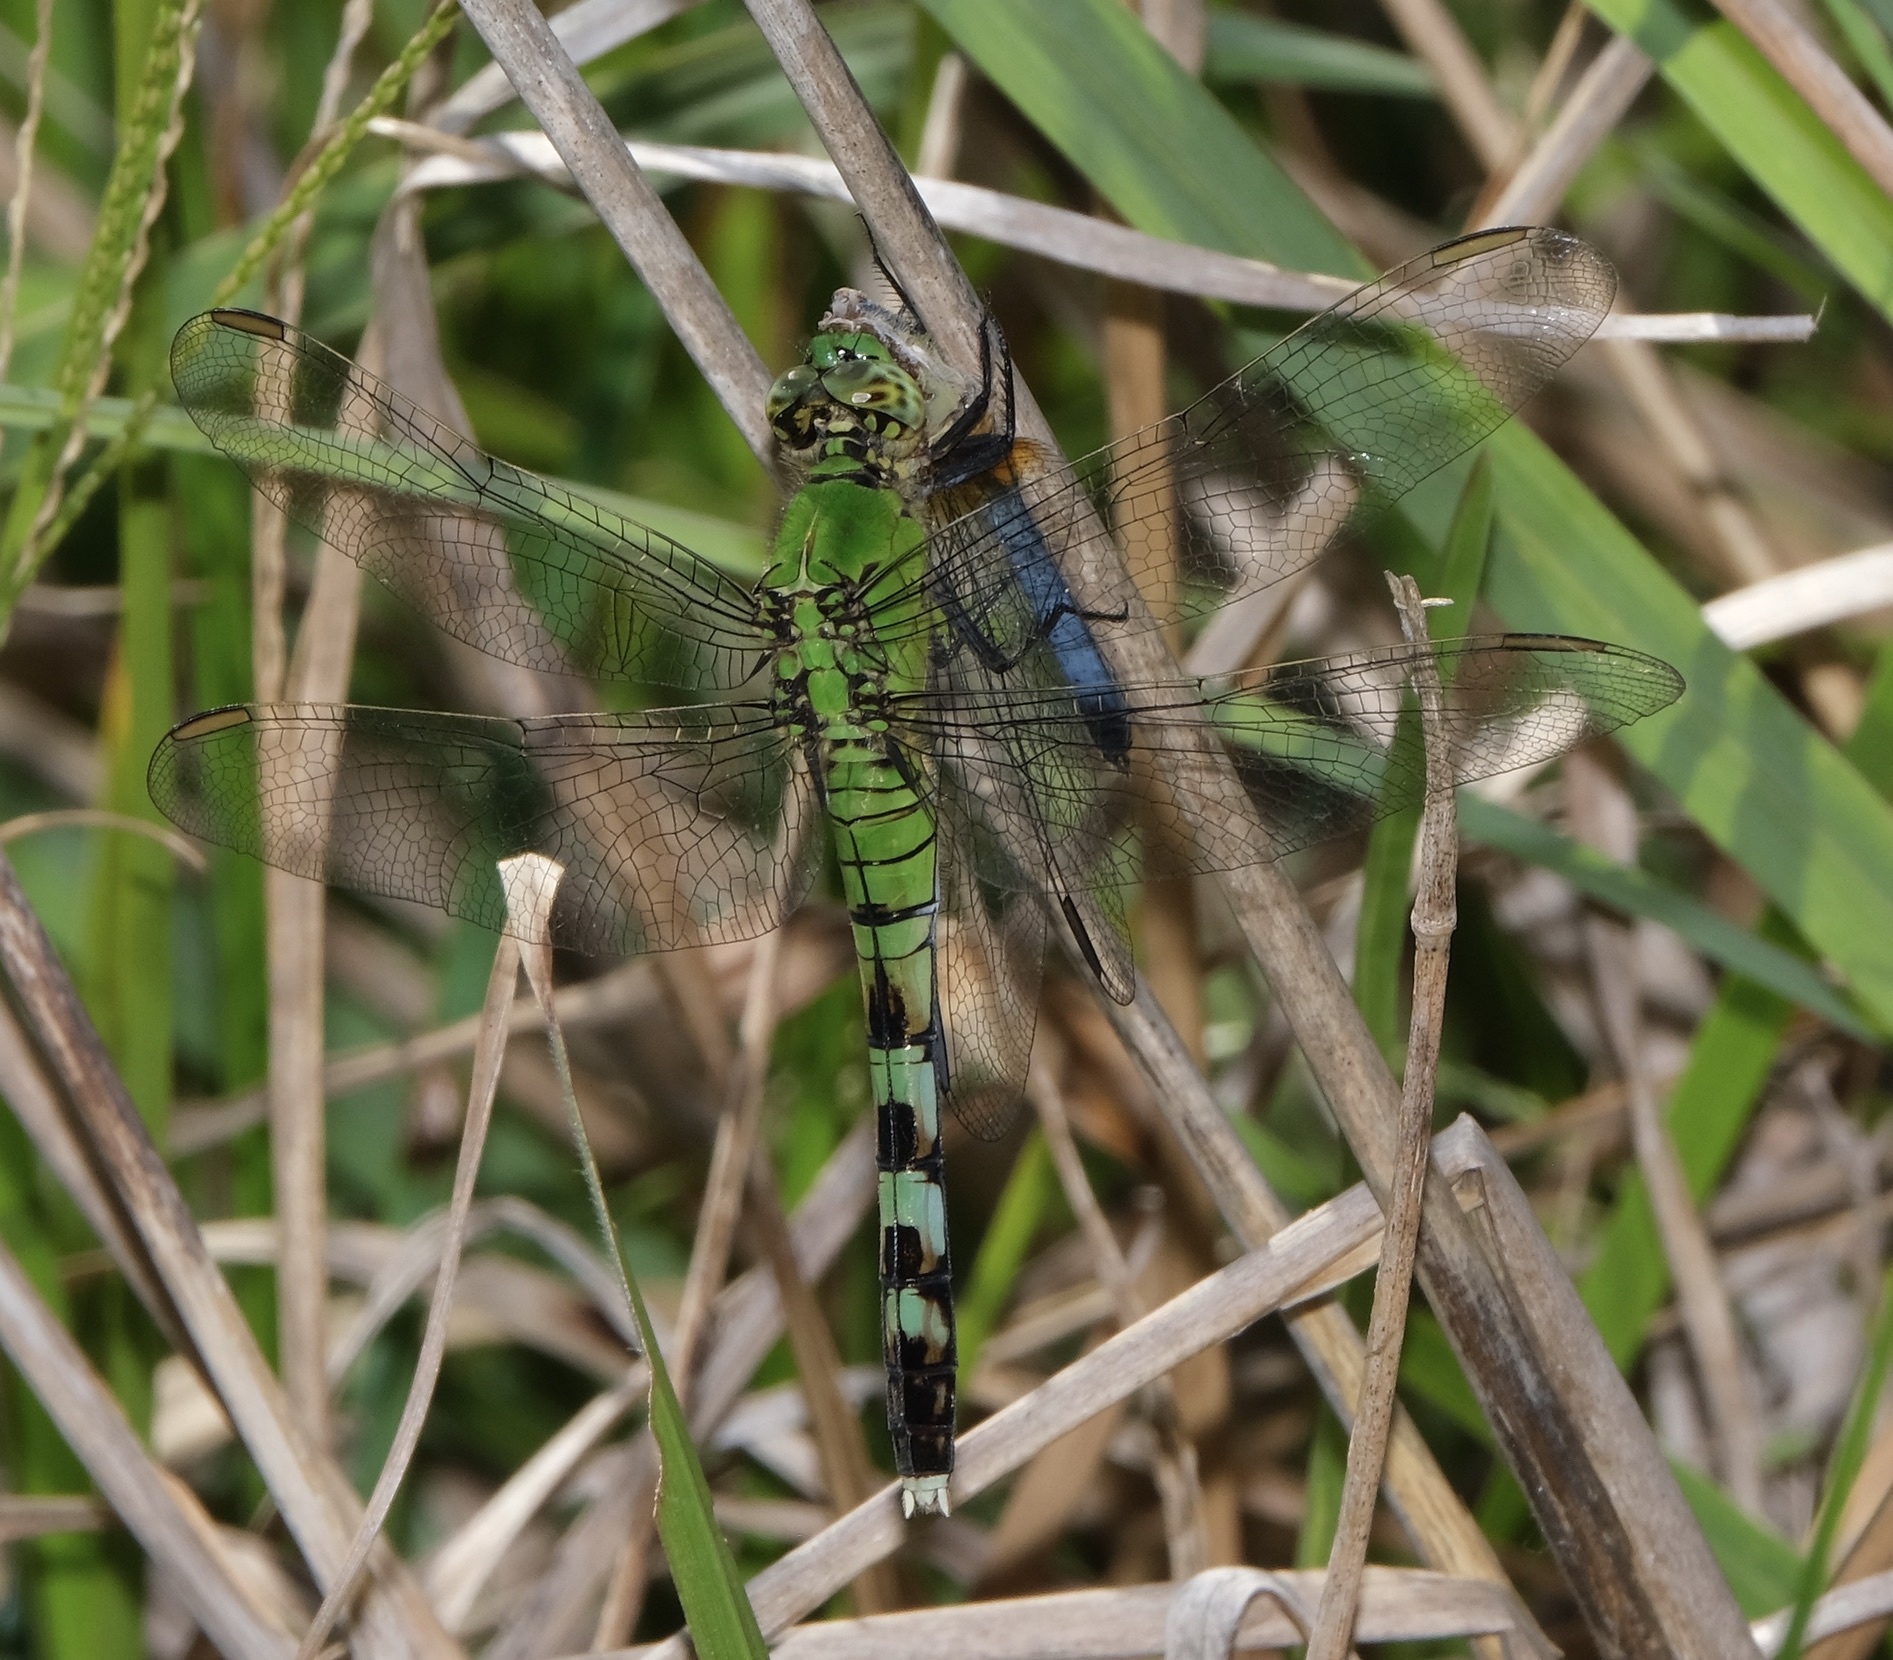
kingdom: Animalia
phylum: Arthropoda
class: Insecta
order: Odonata
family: Libellulidae
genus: Erythemis
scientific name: Erythemis simplicicollis
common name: Eastern pondhawk
